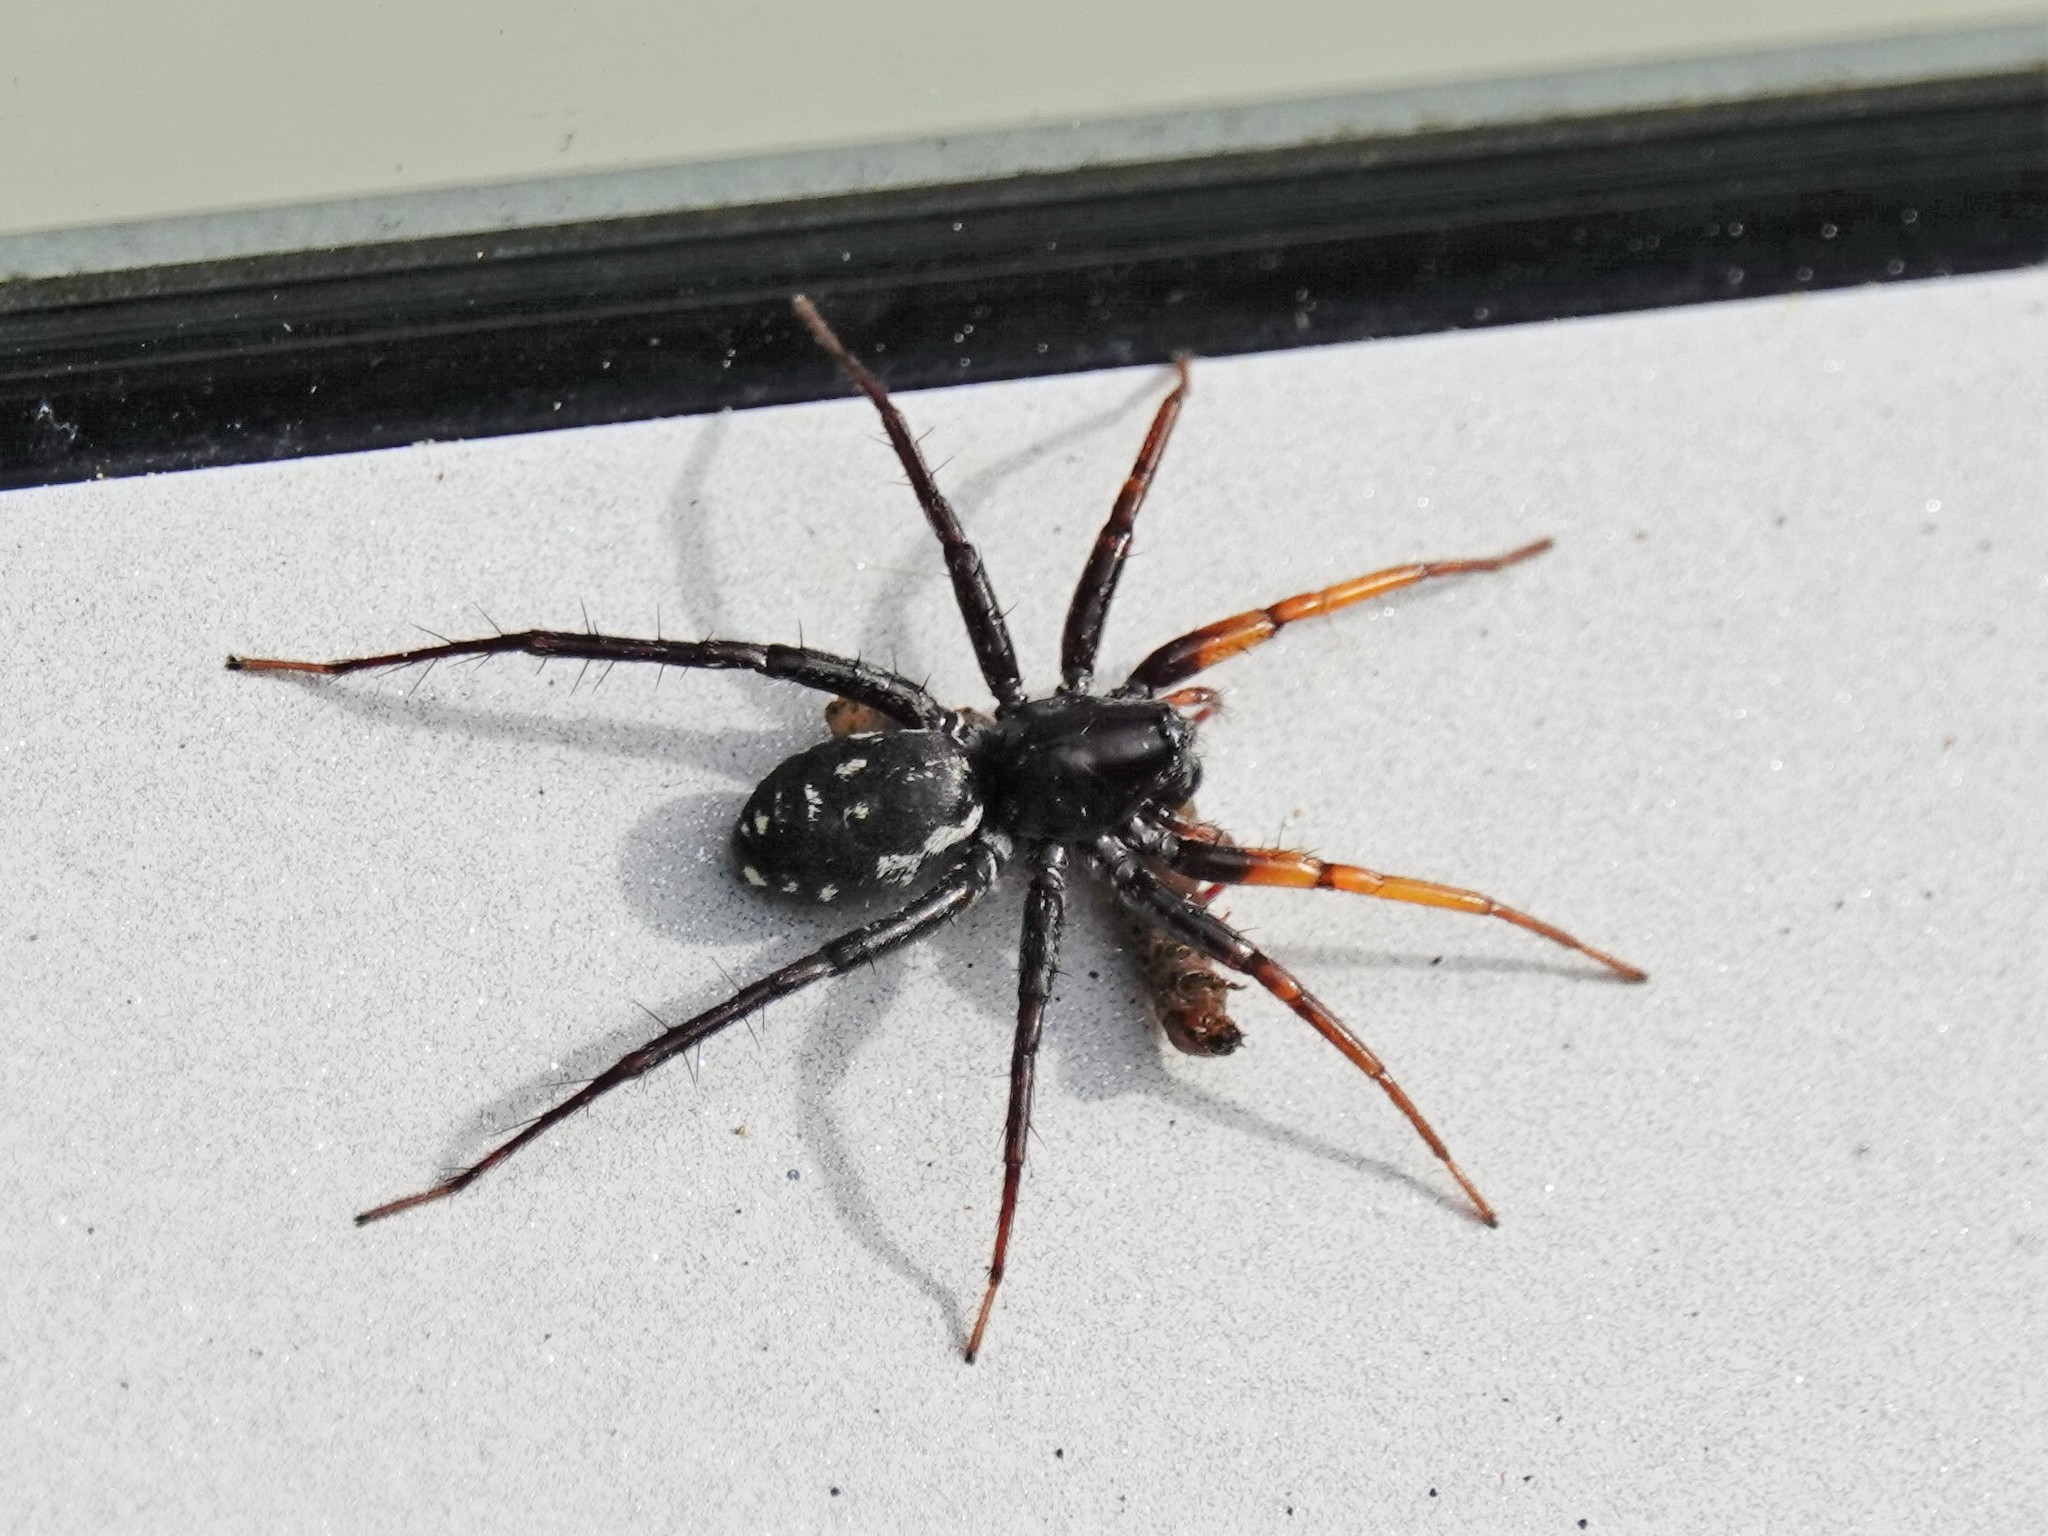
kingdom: Animalia
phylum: Arthropoda
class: Arachnida
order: Araneae
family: Corinnidae
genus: Nyssus
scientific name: Nyssus coloripes
